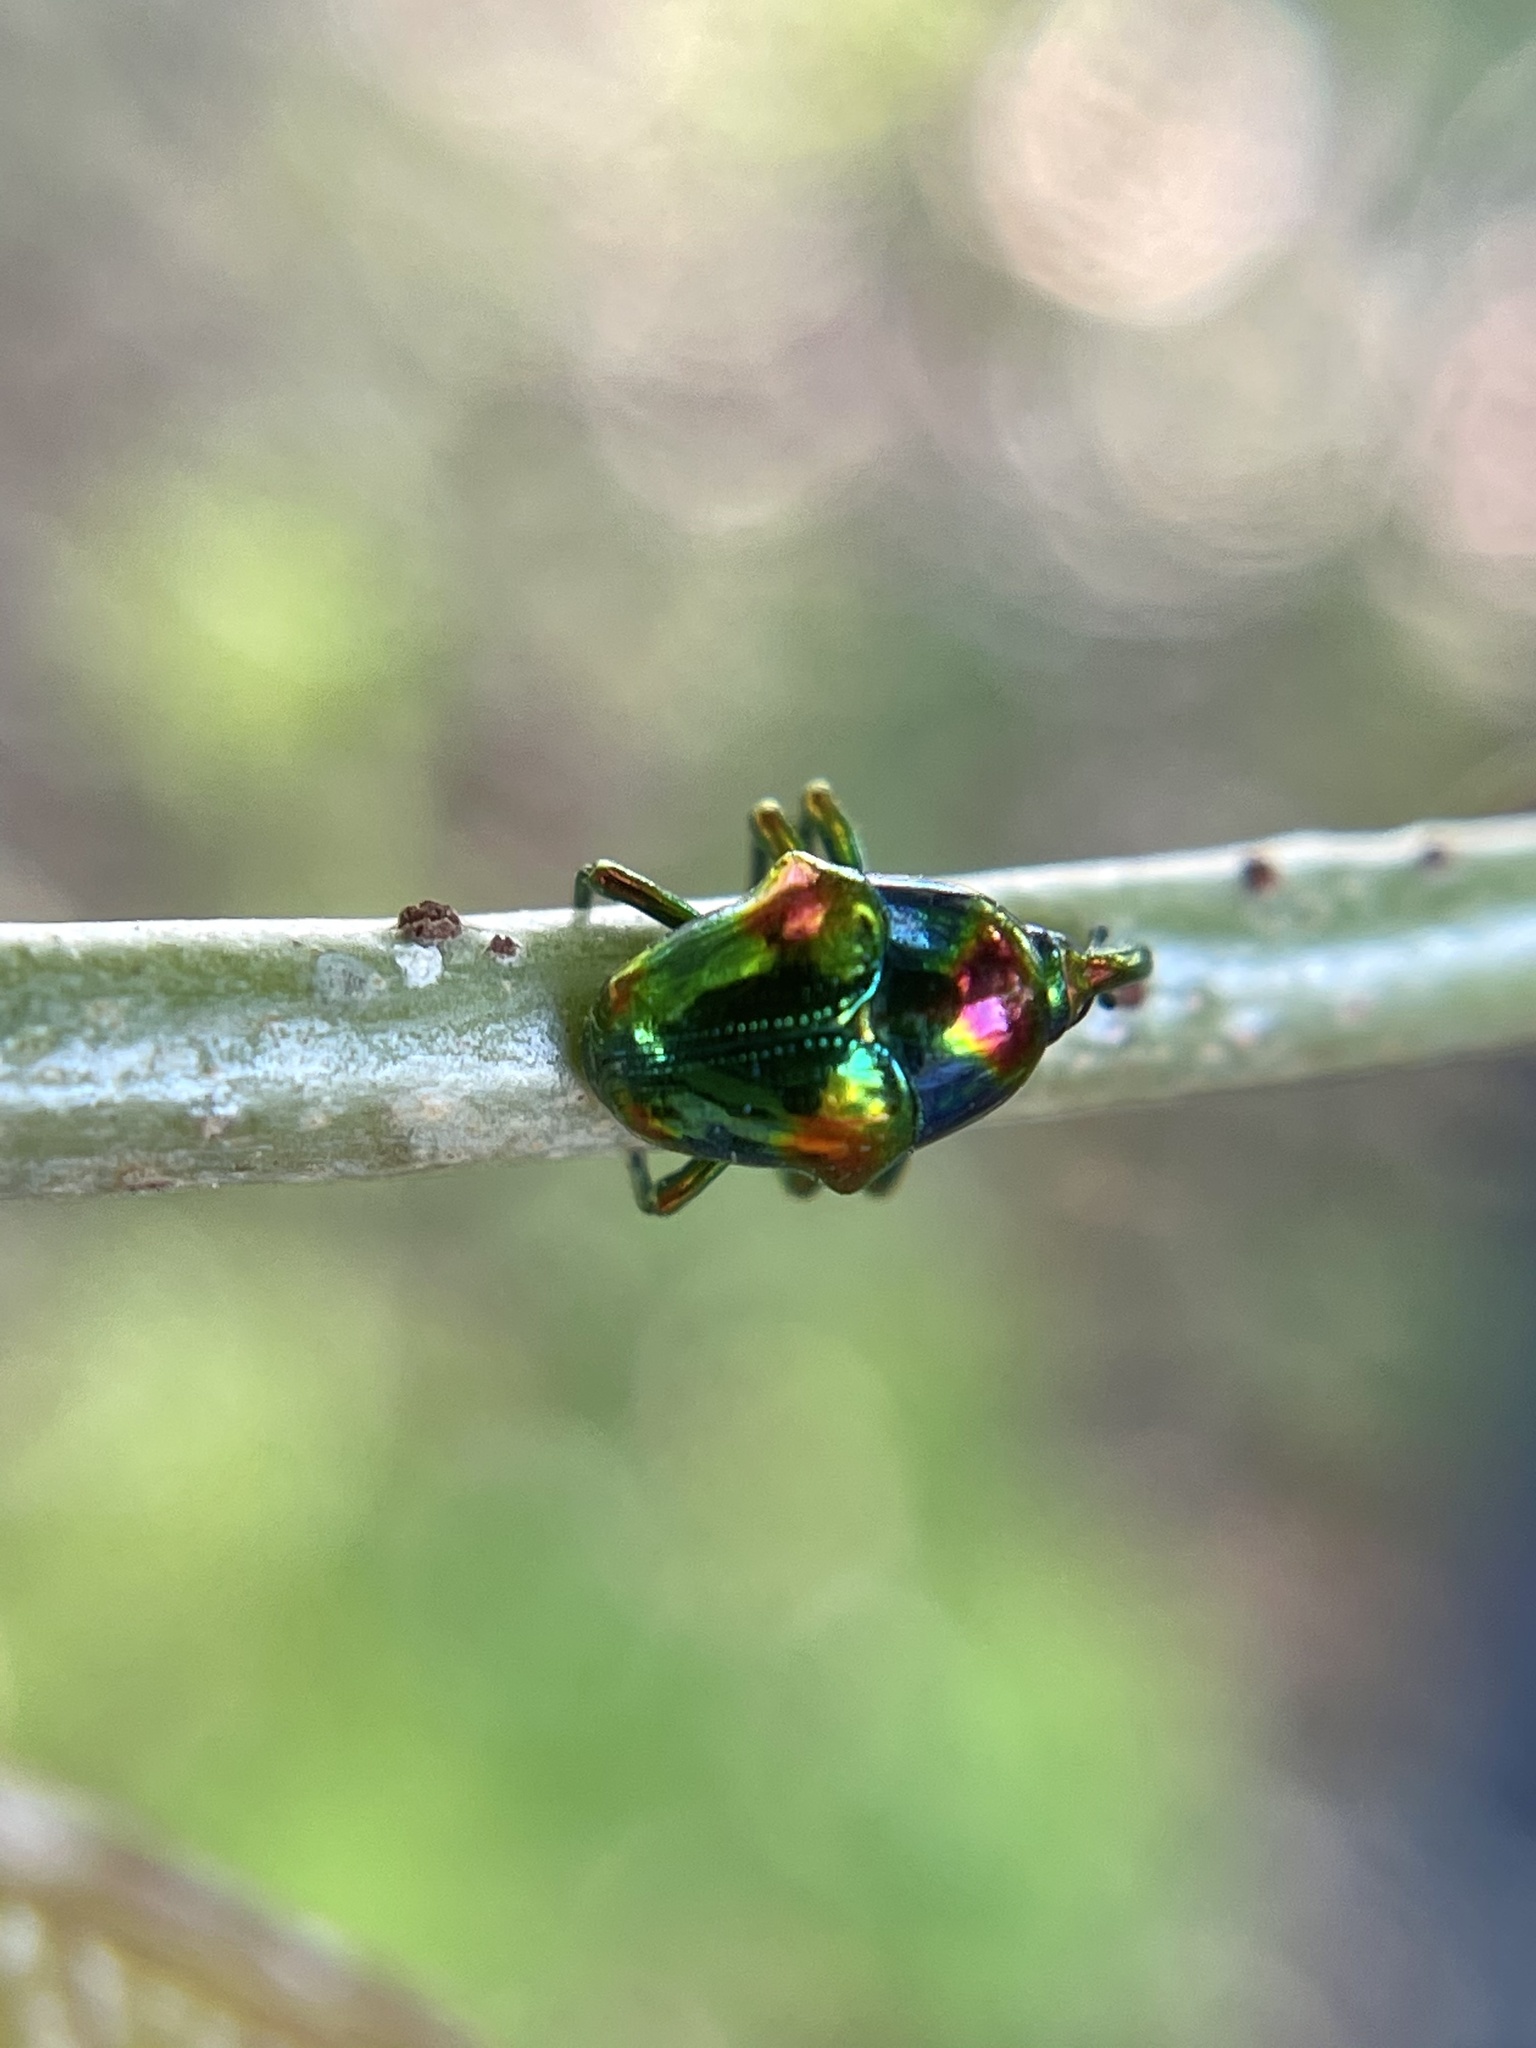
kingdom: Animalia
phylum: Arthropoda
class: Insecta
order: Coleoptera
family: Eurhynchidae
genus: Eurhinus
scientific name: Eurhinus magnificus
